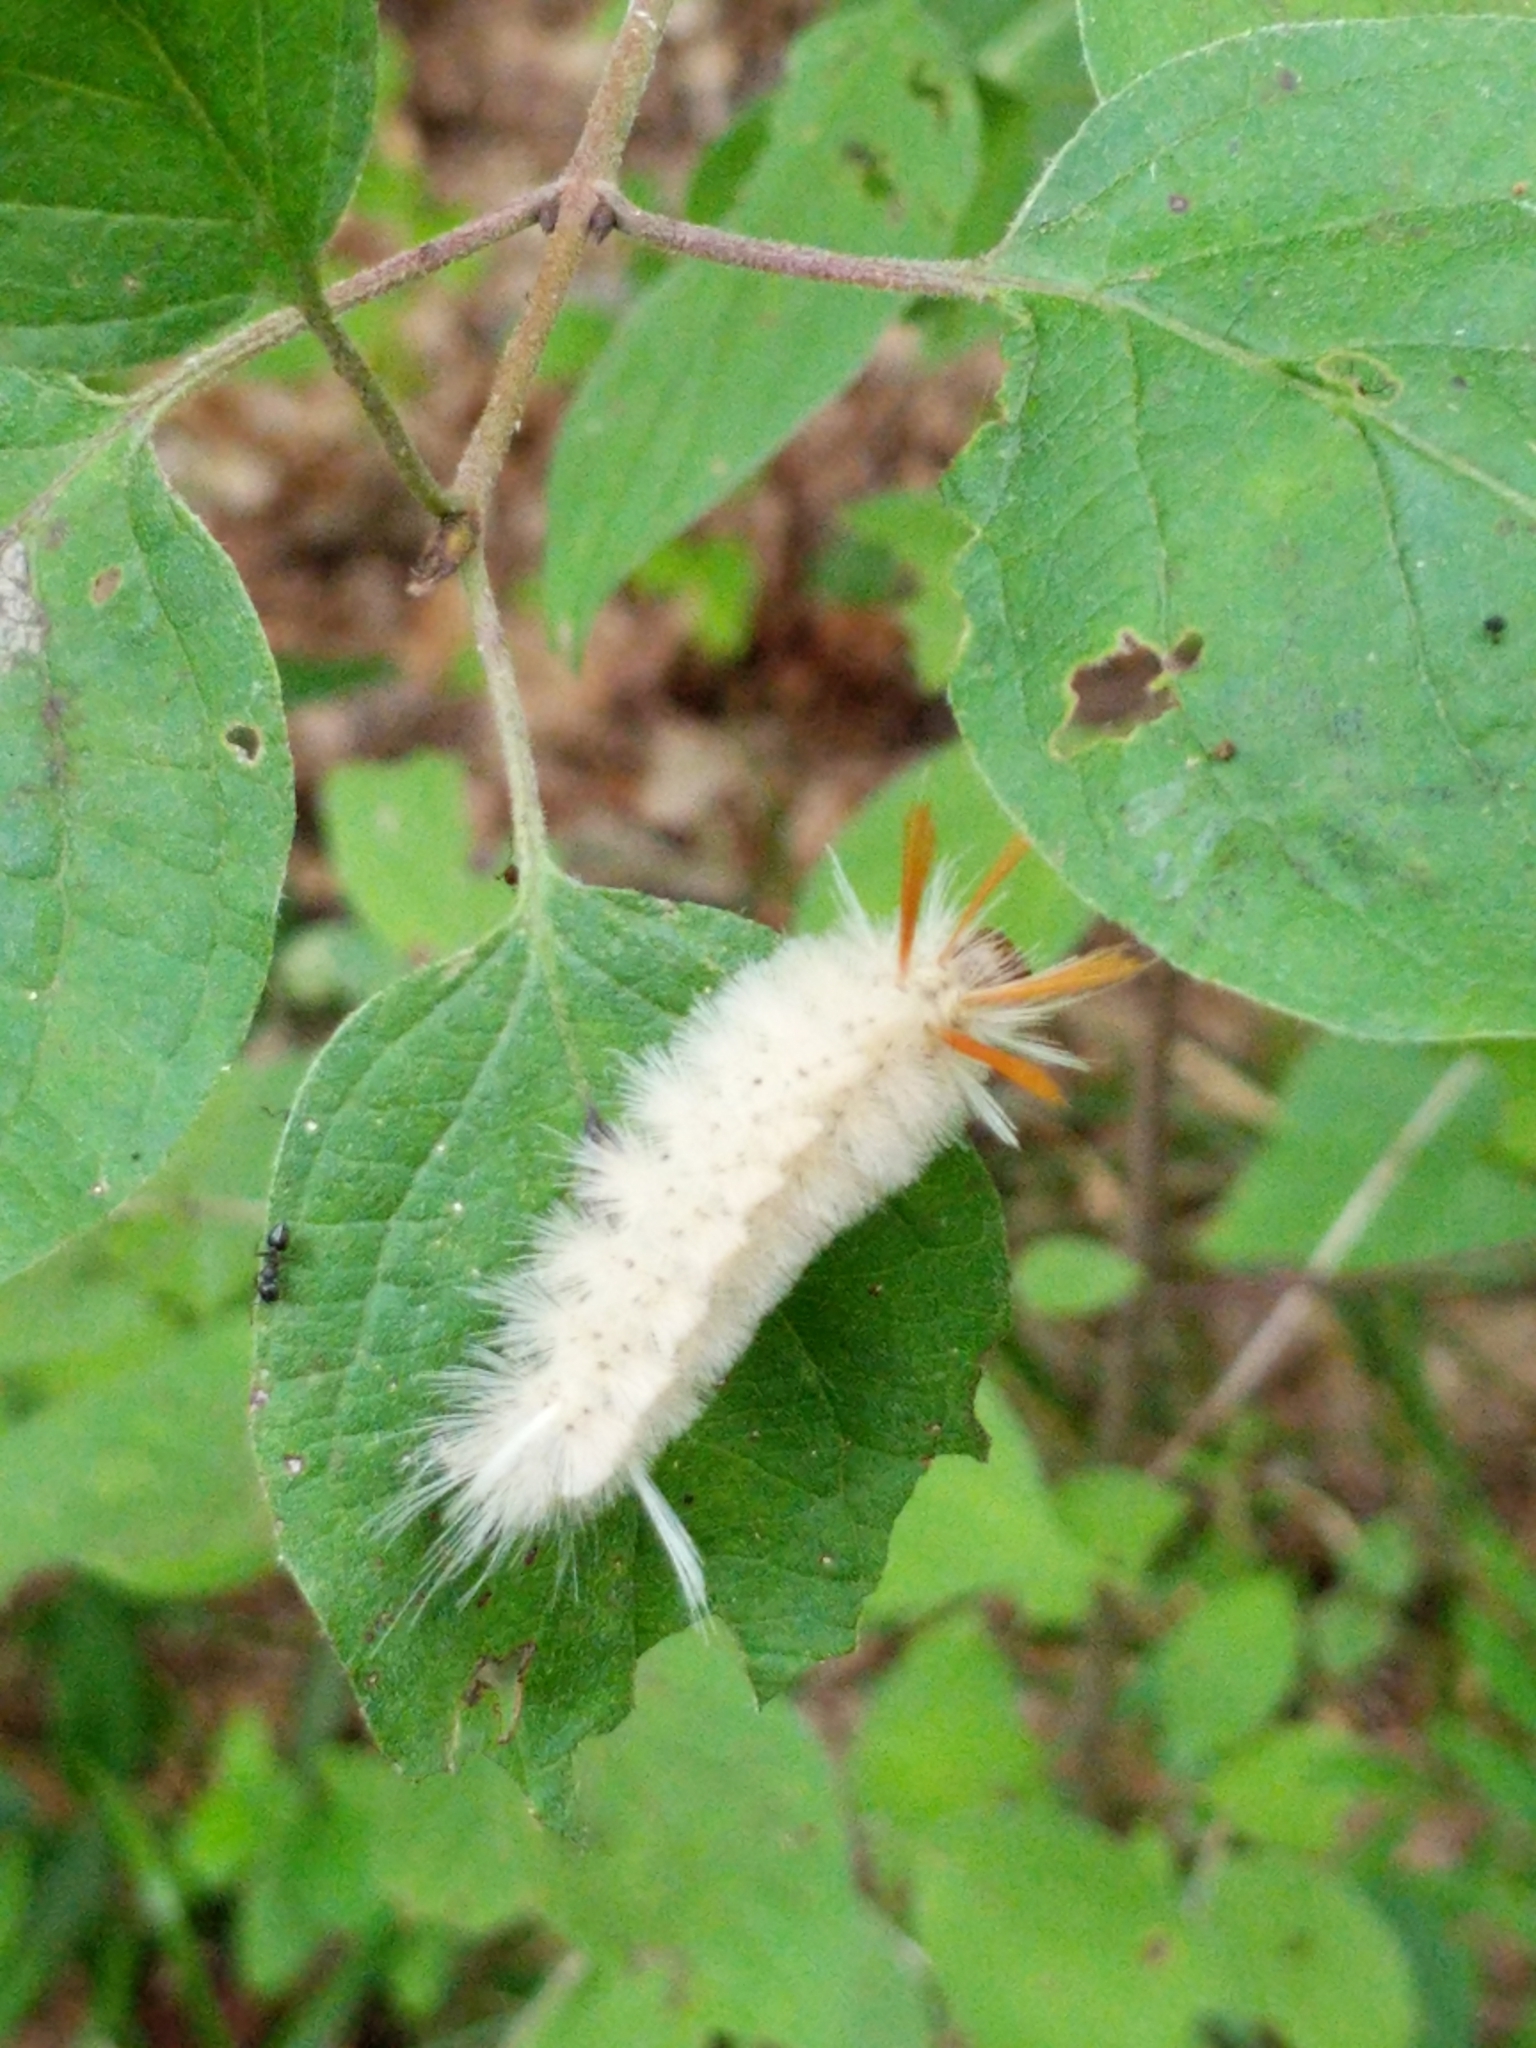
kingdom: Animalia
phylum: Arthropoda
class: Insecta
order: Lepidoptera
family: Erebidae
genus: Halysidota
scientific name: Halysidota harrisii
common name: Sycamore tussock moth
